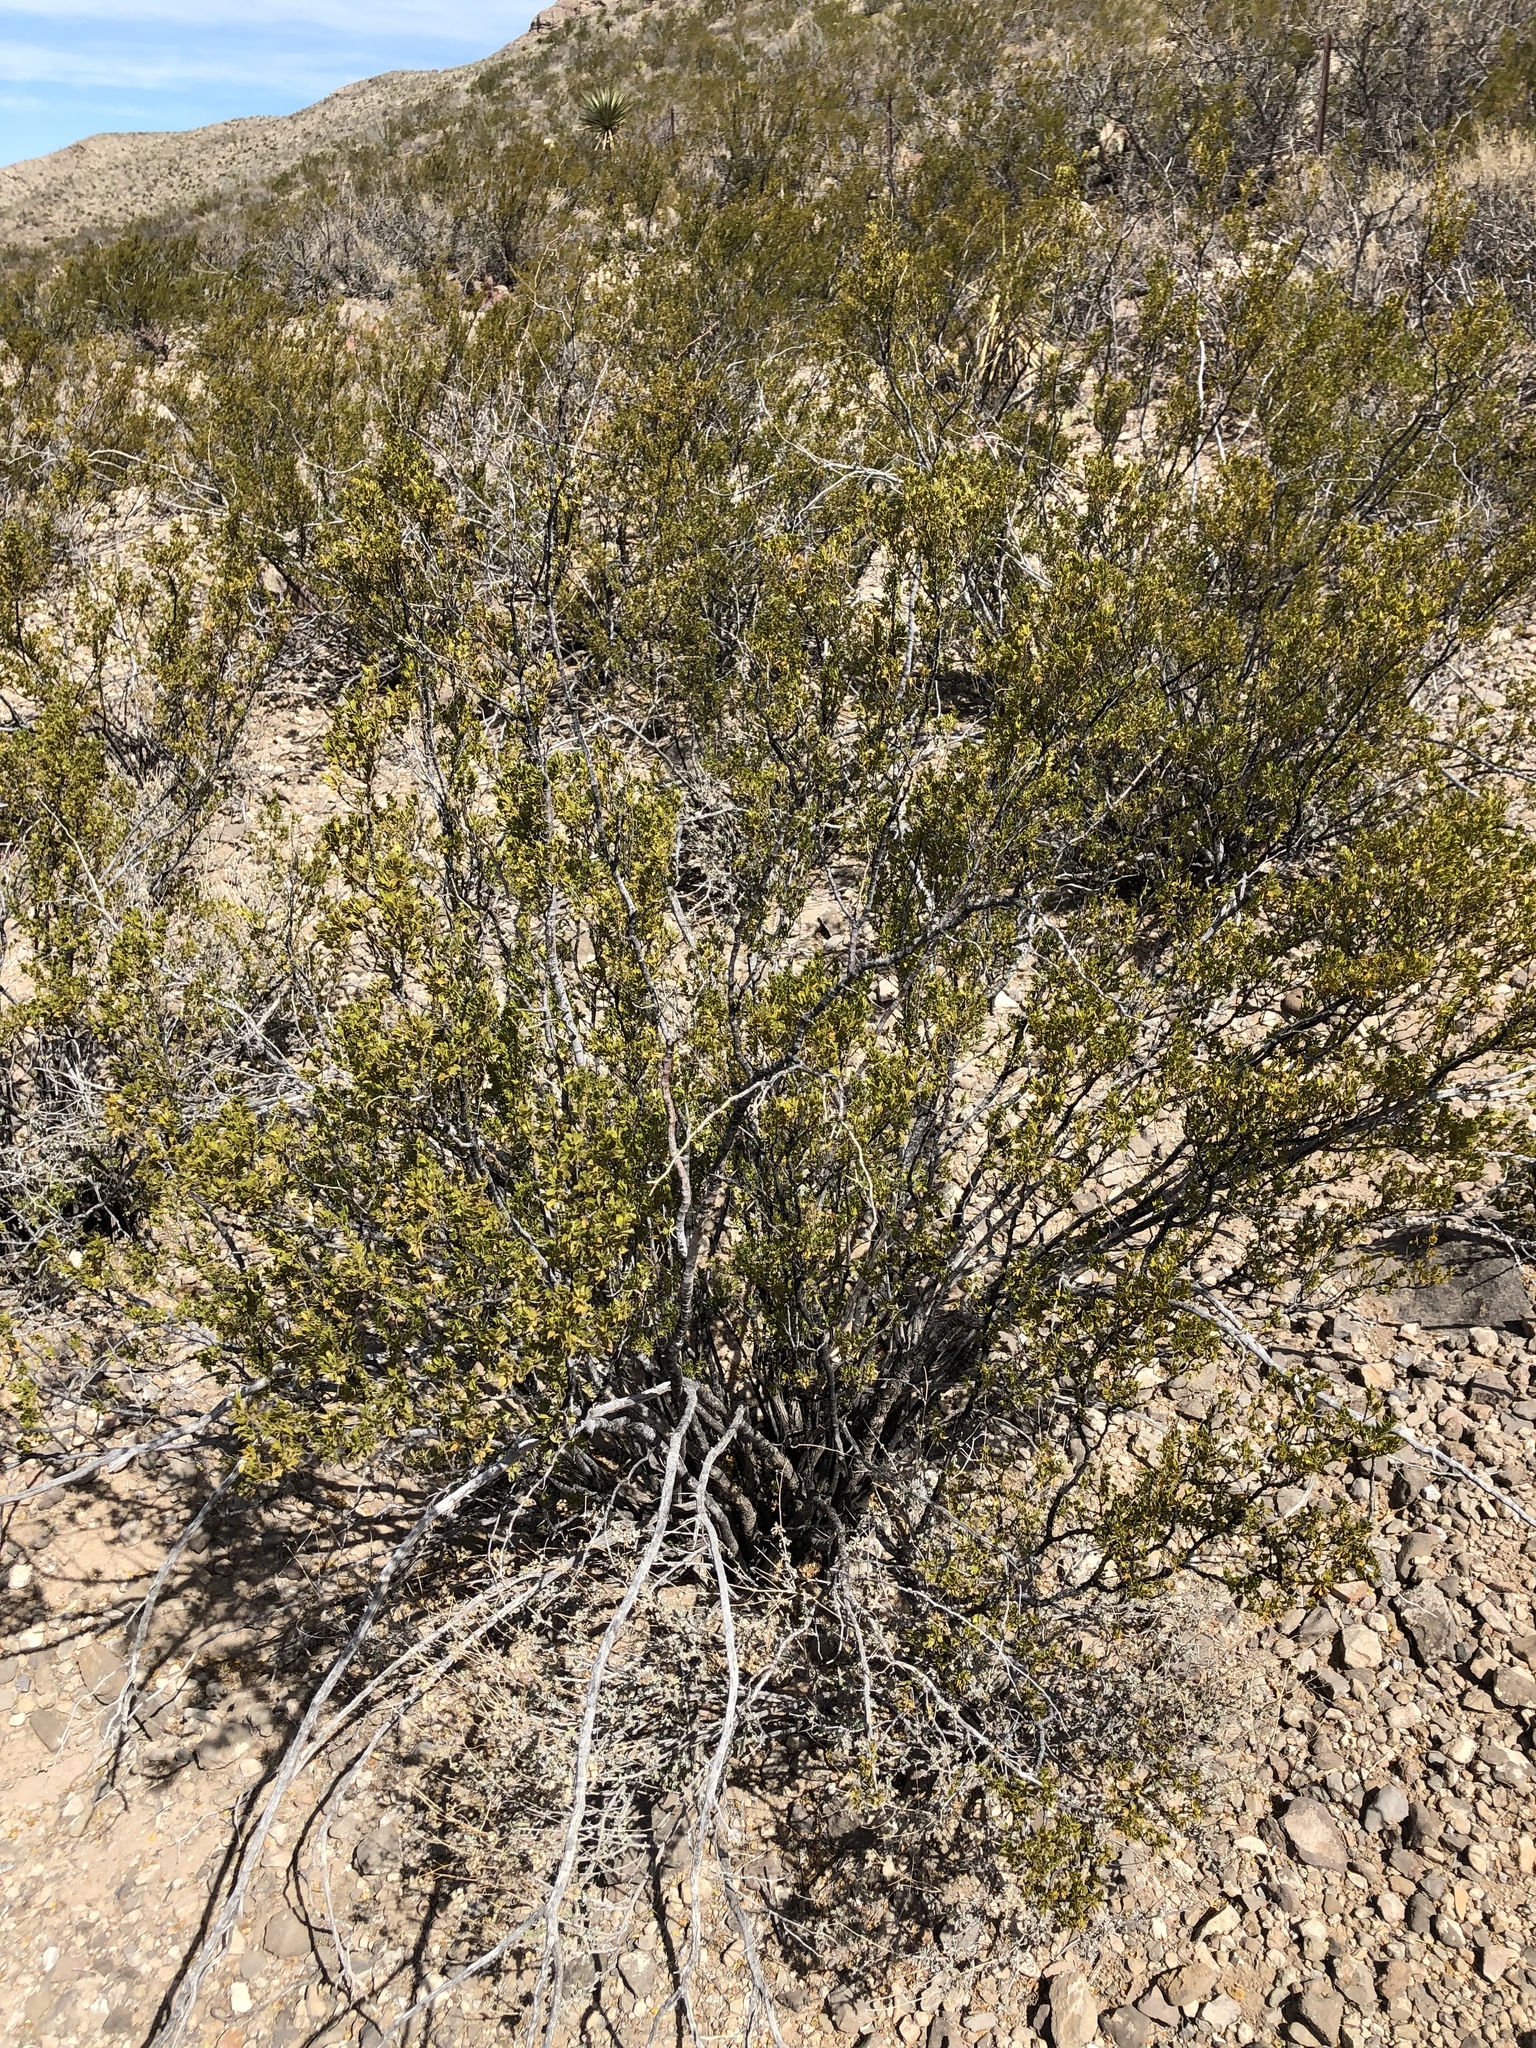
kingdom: Plantae
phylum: Tracheophyta
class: Magnoliopsida
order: Zygophyllales
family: Zygophyllaceae
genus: Larrea
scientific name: Larrea tridentata
